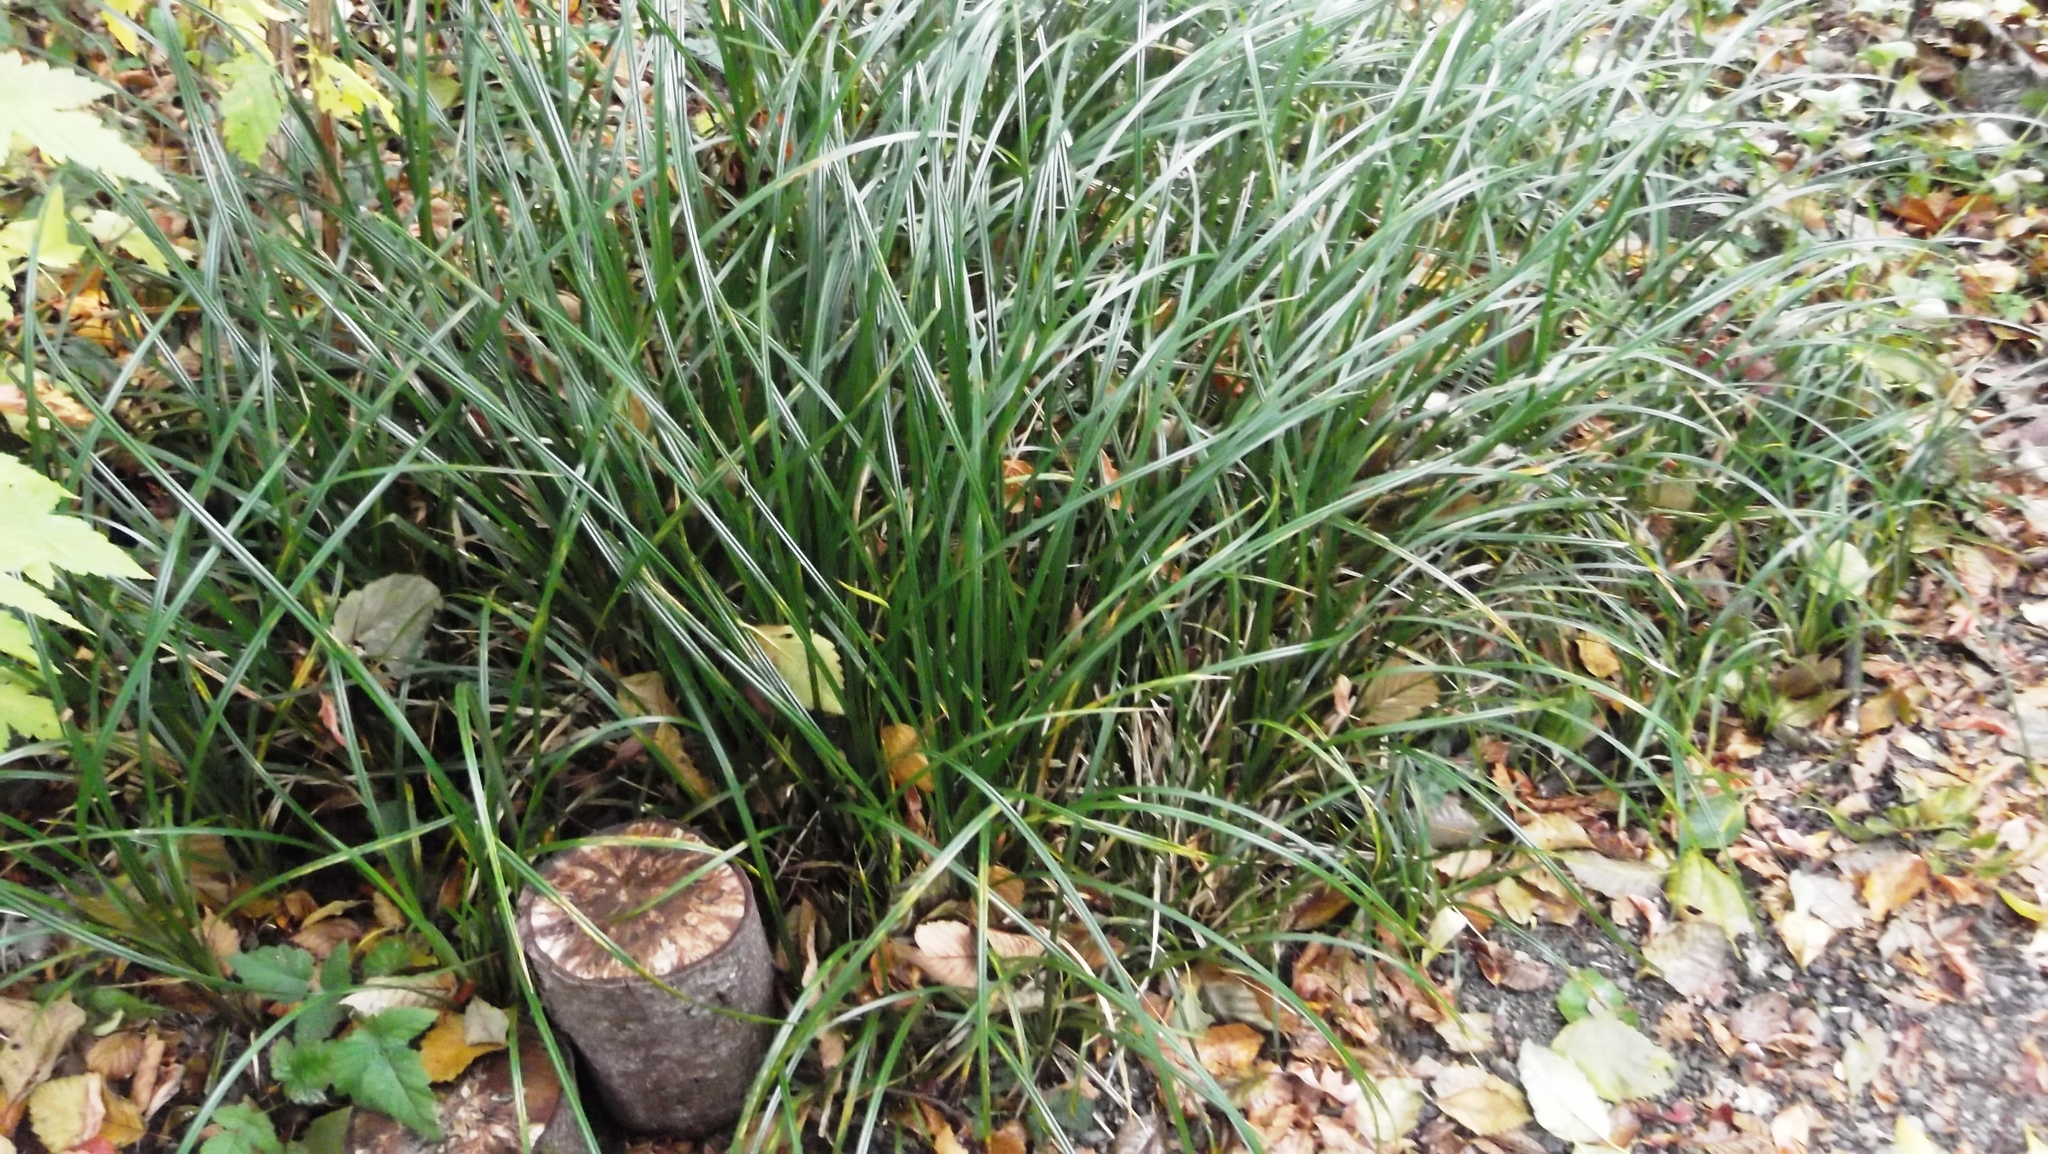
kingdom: Plantae
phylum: Tracheophyta
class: Liliopsida
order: Poales
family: Cyperaceae
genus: Carex
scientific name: Carex obnupta
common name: Slough sedge
